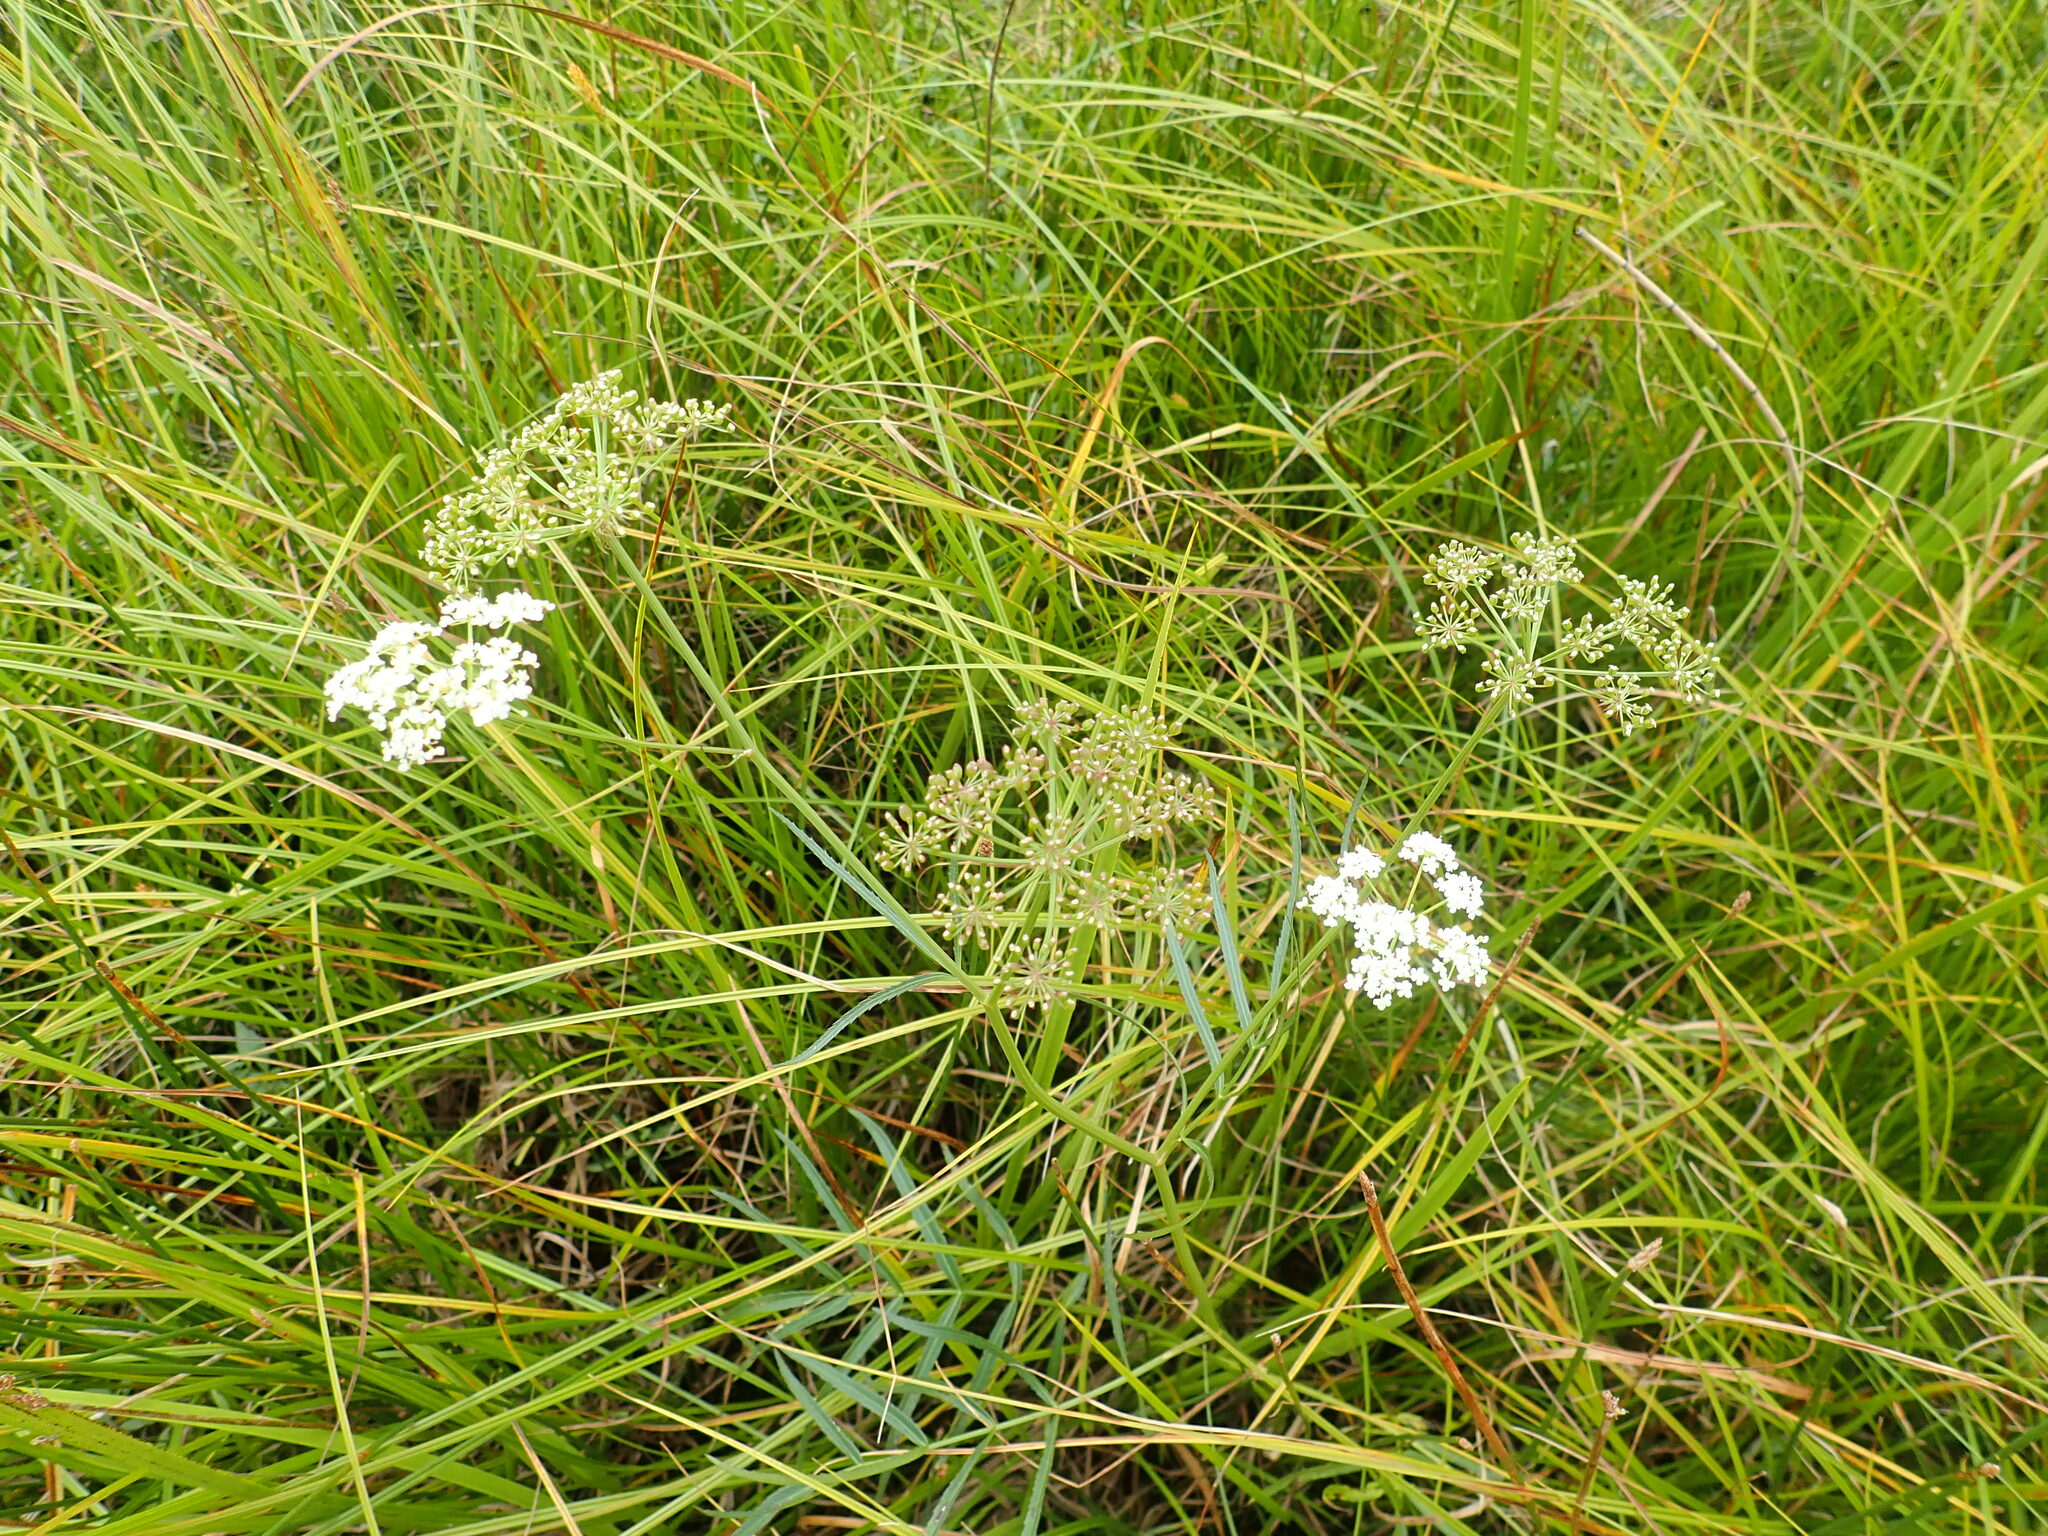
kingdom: Plantae
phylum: Tracheophyta
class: Magnoliopsida
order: Apiales
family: Apiaceae
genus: Sium
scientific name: Sium suave
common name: Hemlock water-parsnip
